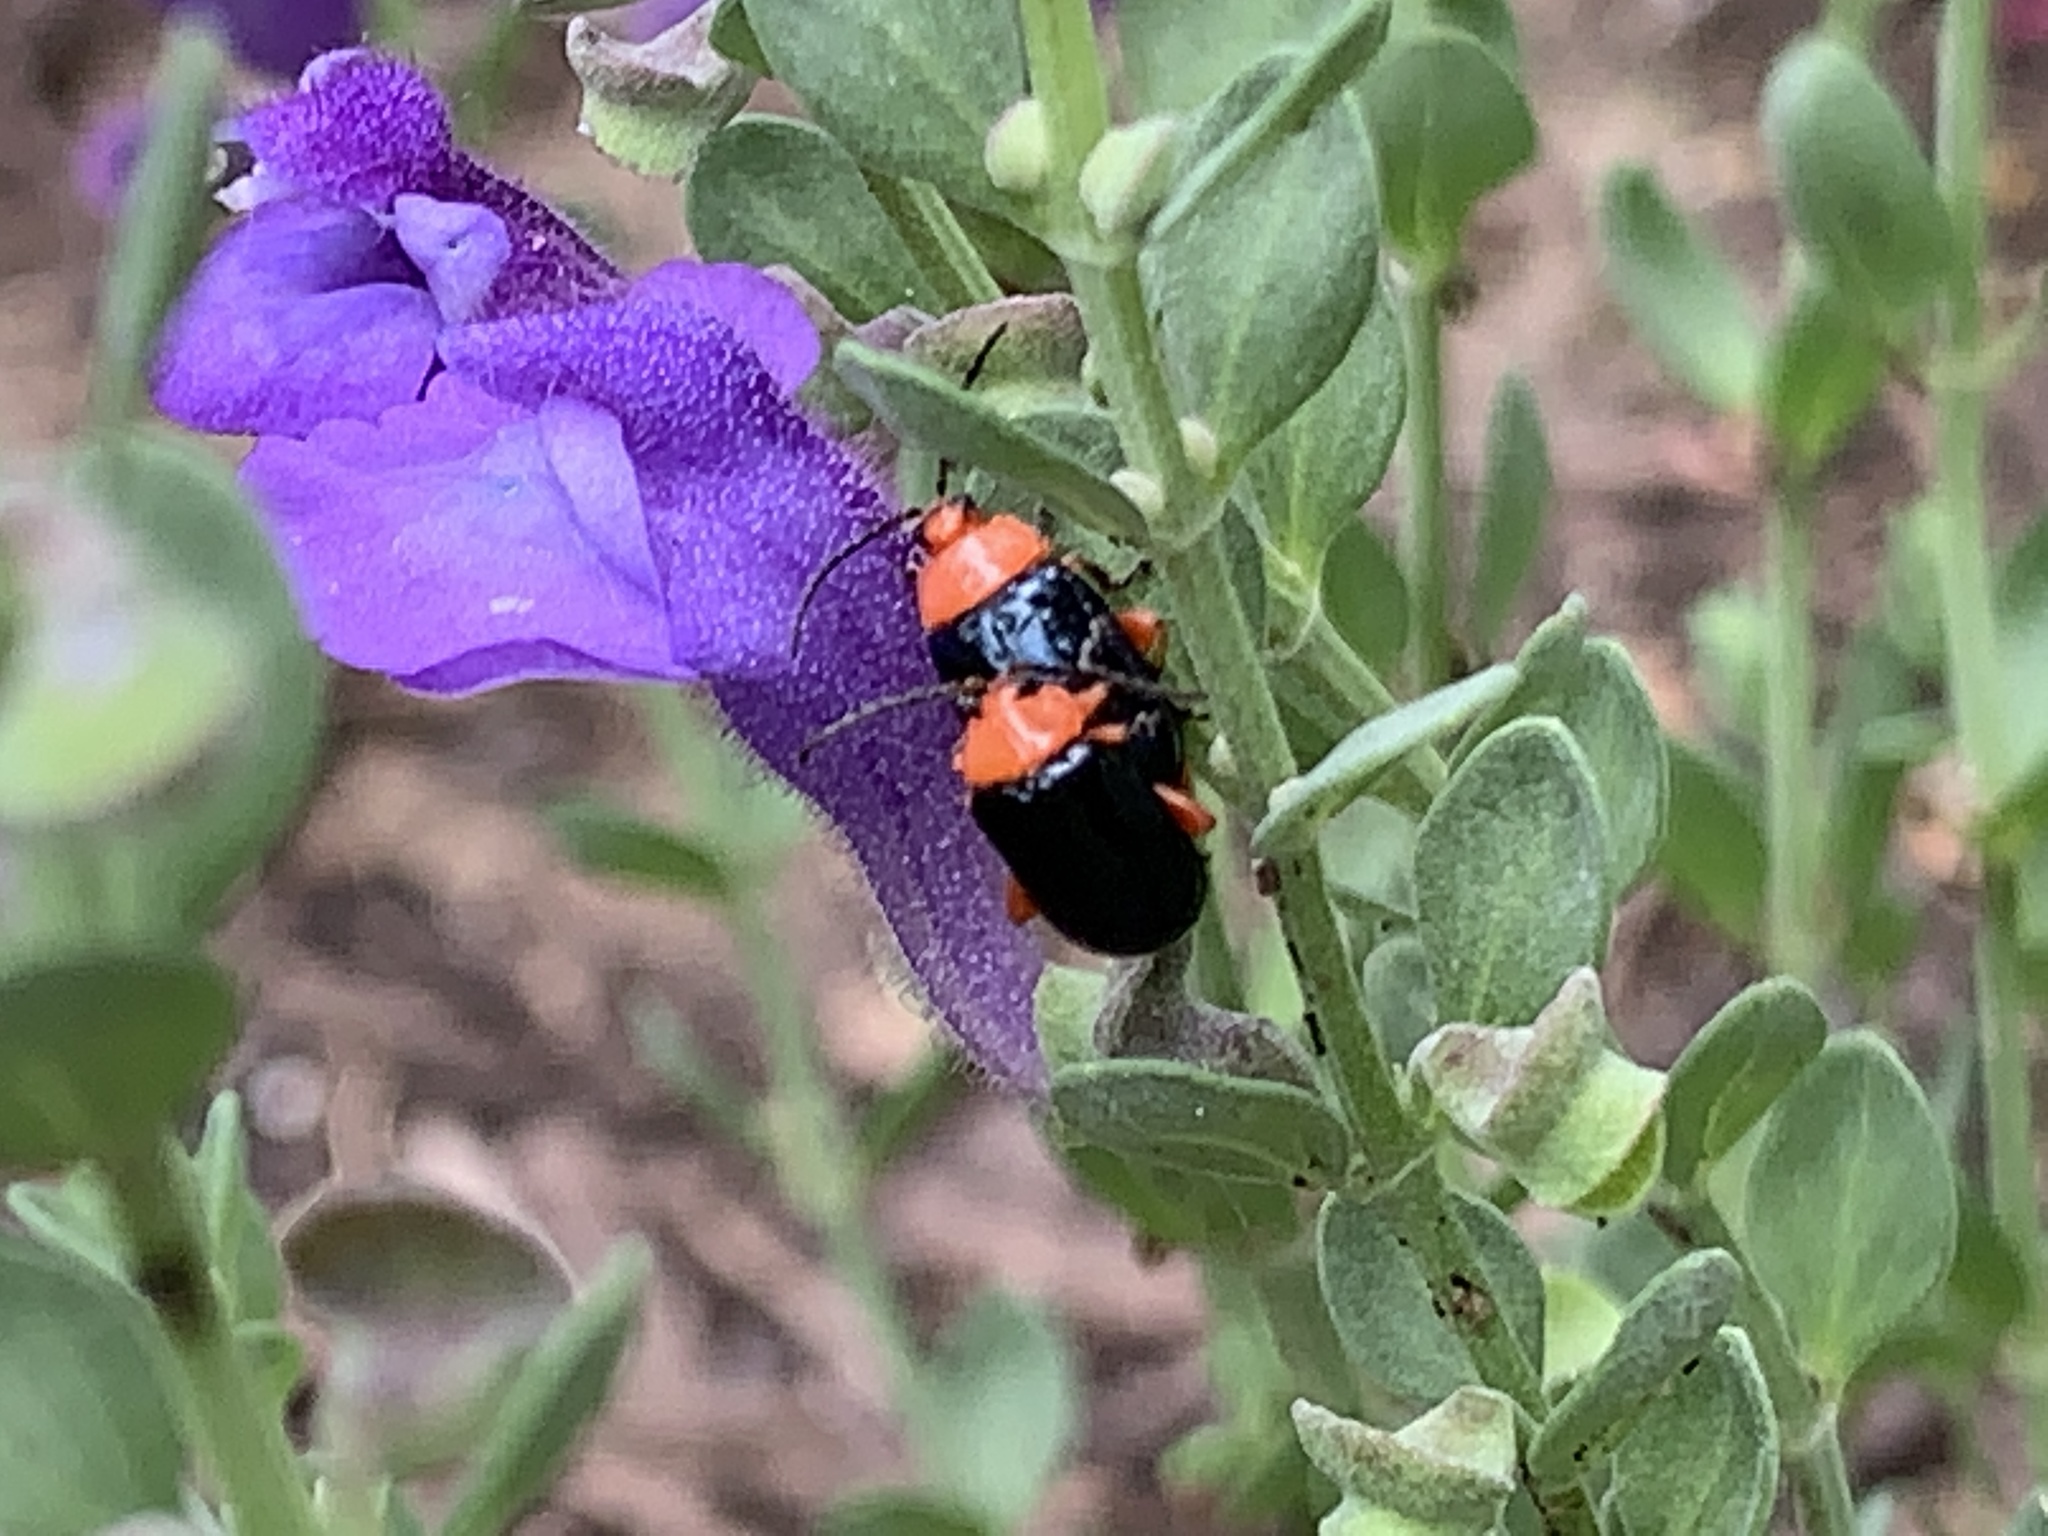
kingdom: Animalia
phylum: Arthropoda
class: Insecta
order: Coleoptera
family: Chrysomelidae
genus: Asphaera
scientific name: Asphaera lustrans
